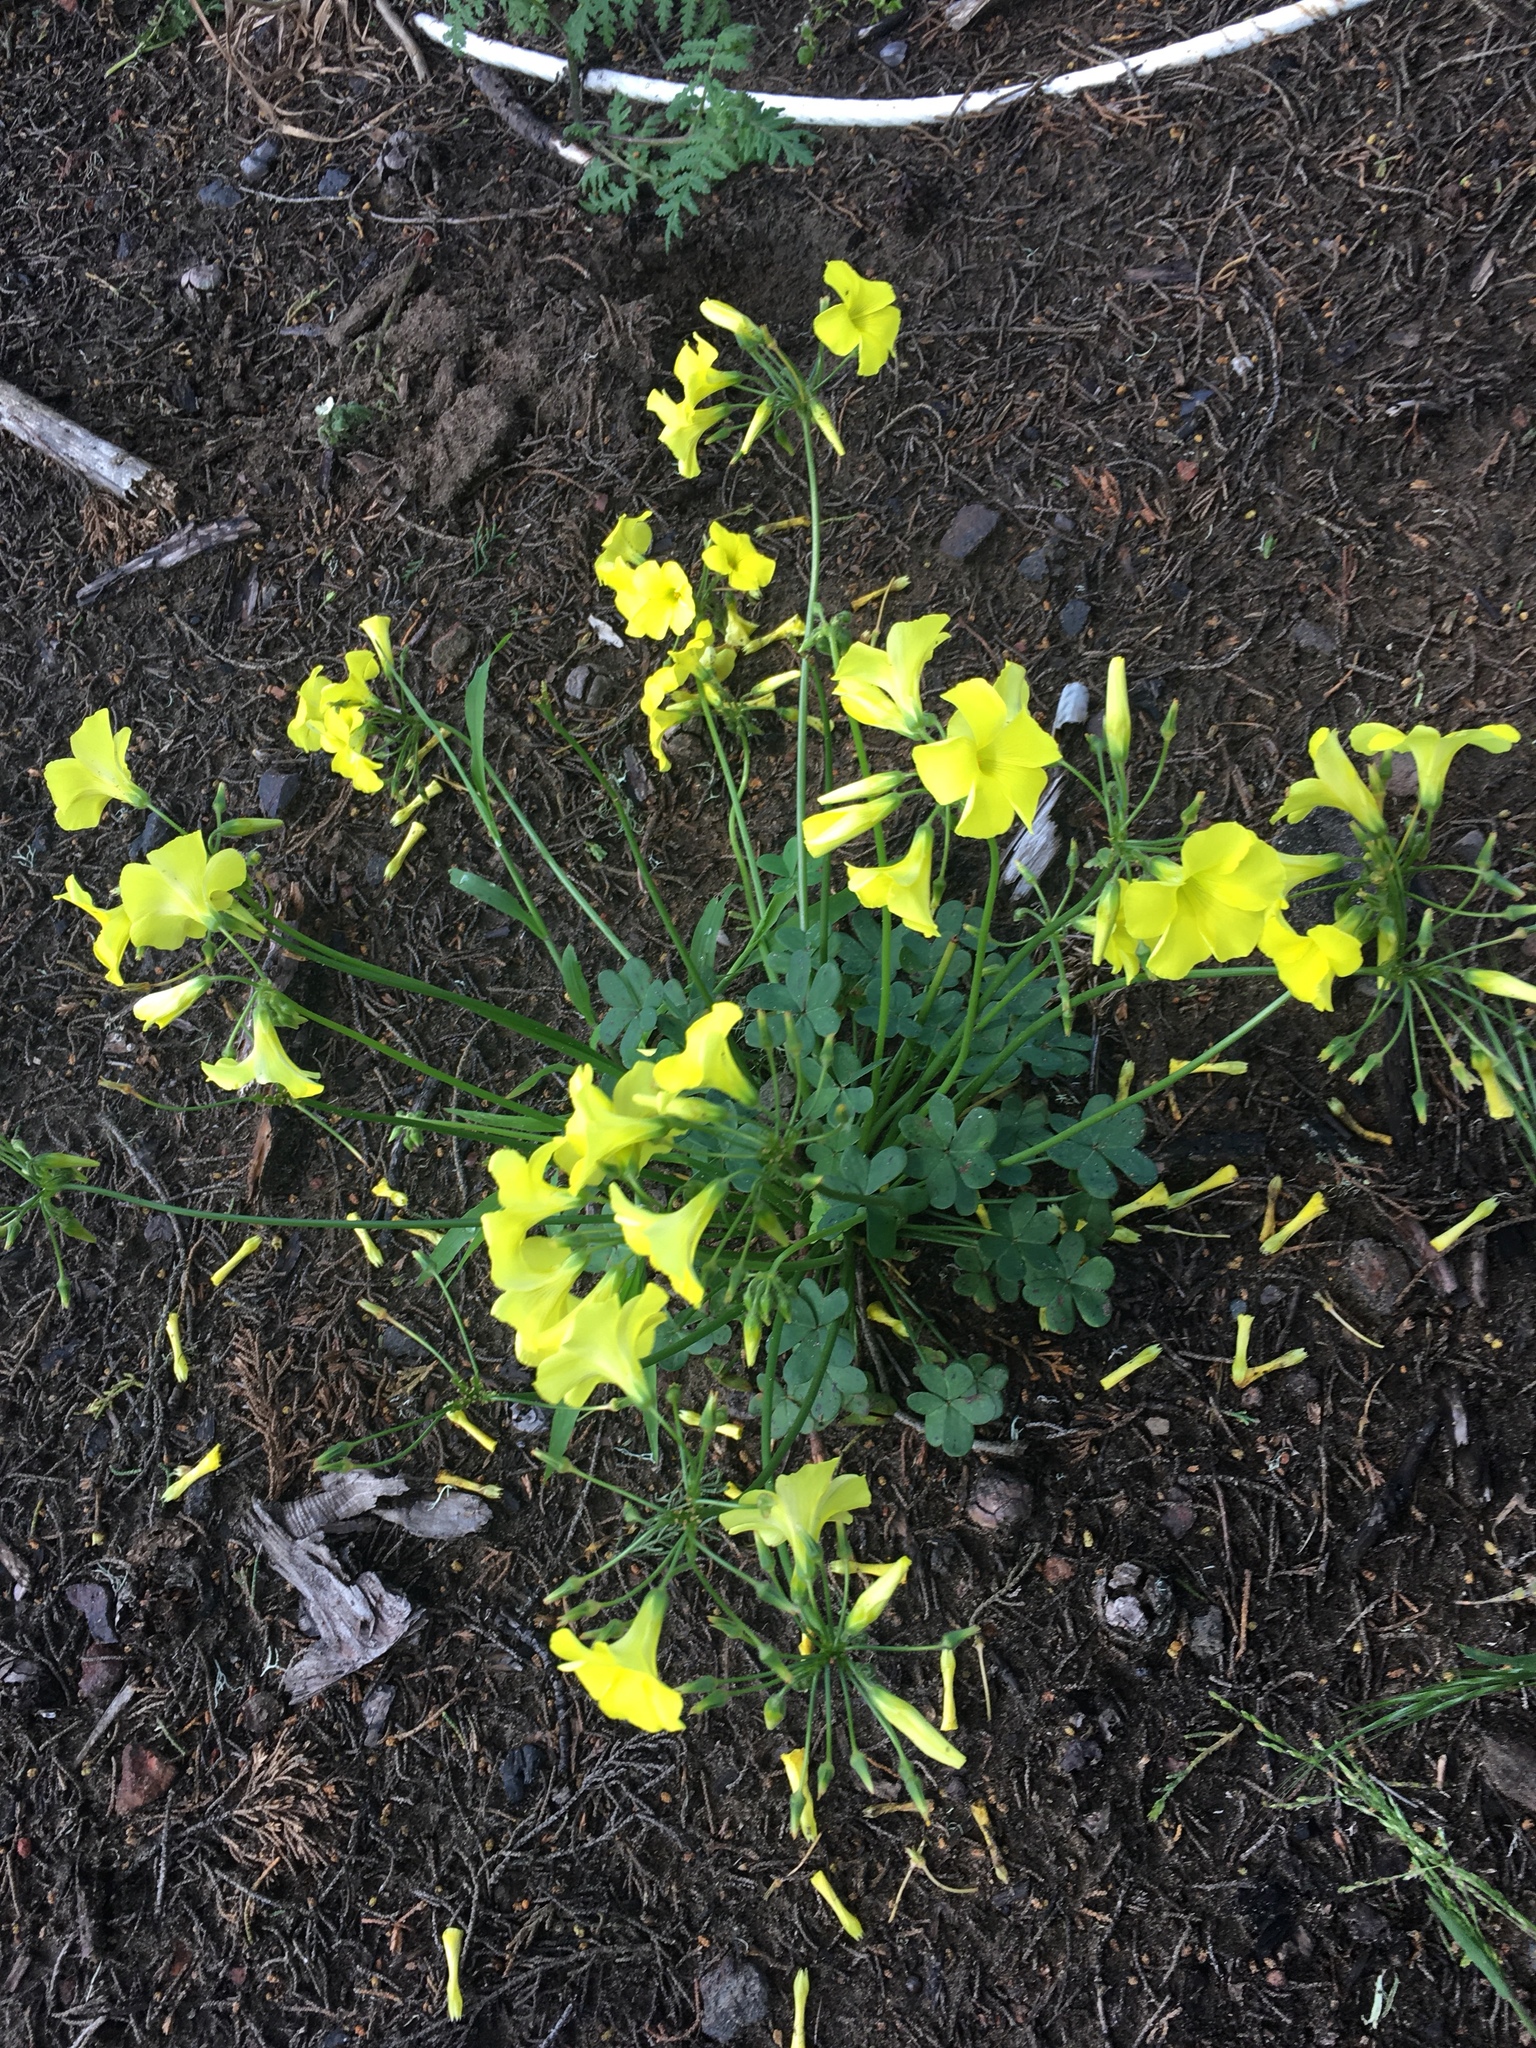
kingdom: Plantae
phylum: Tracheophyta
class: Magnoliopsida
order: Oxalidales
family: Oxalidaceae
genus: Oxalis
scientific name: Oxalis pes-caprae
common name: Bermuda-buttercup
